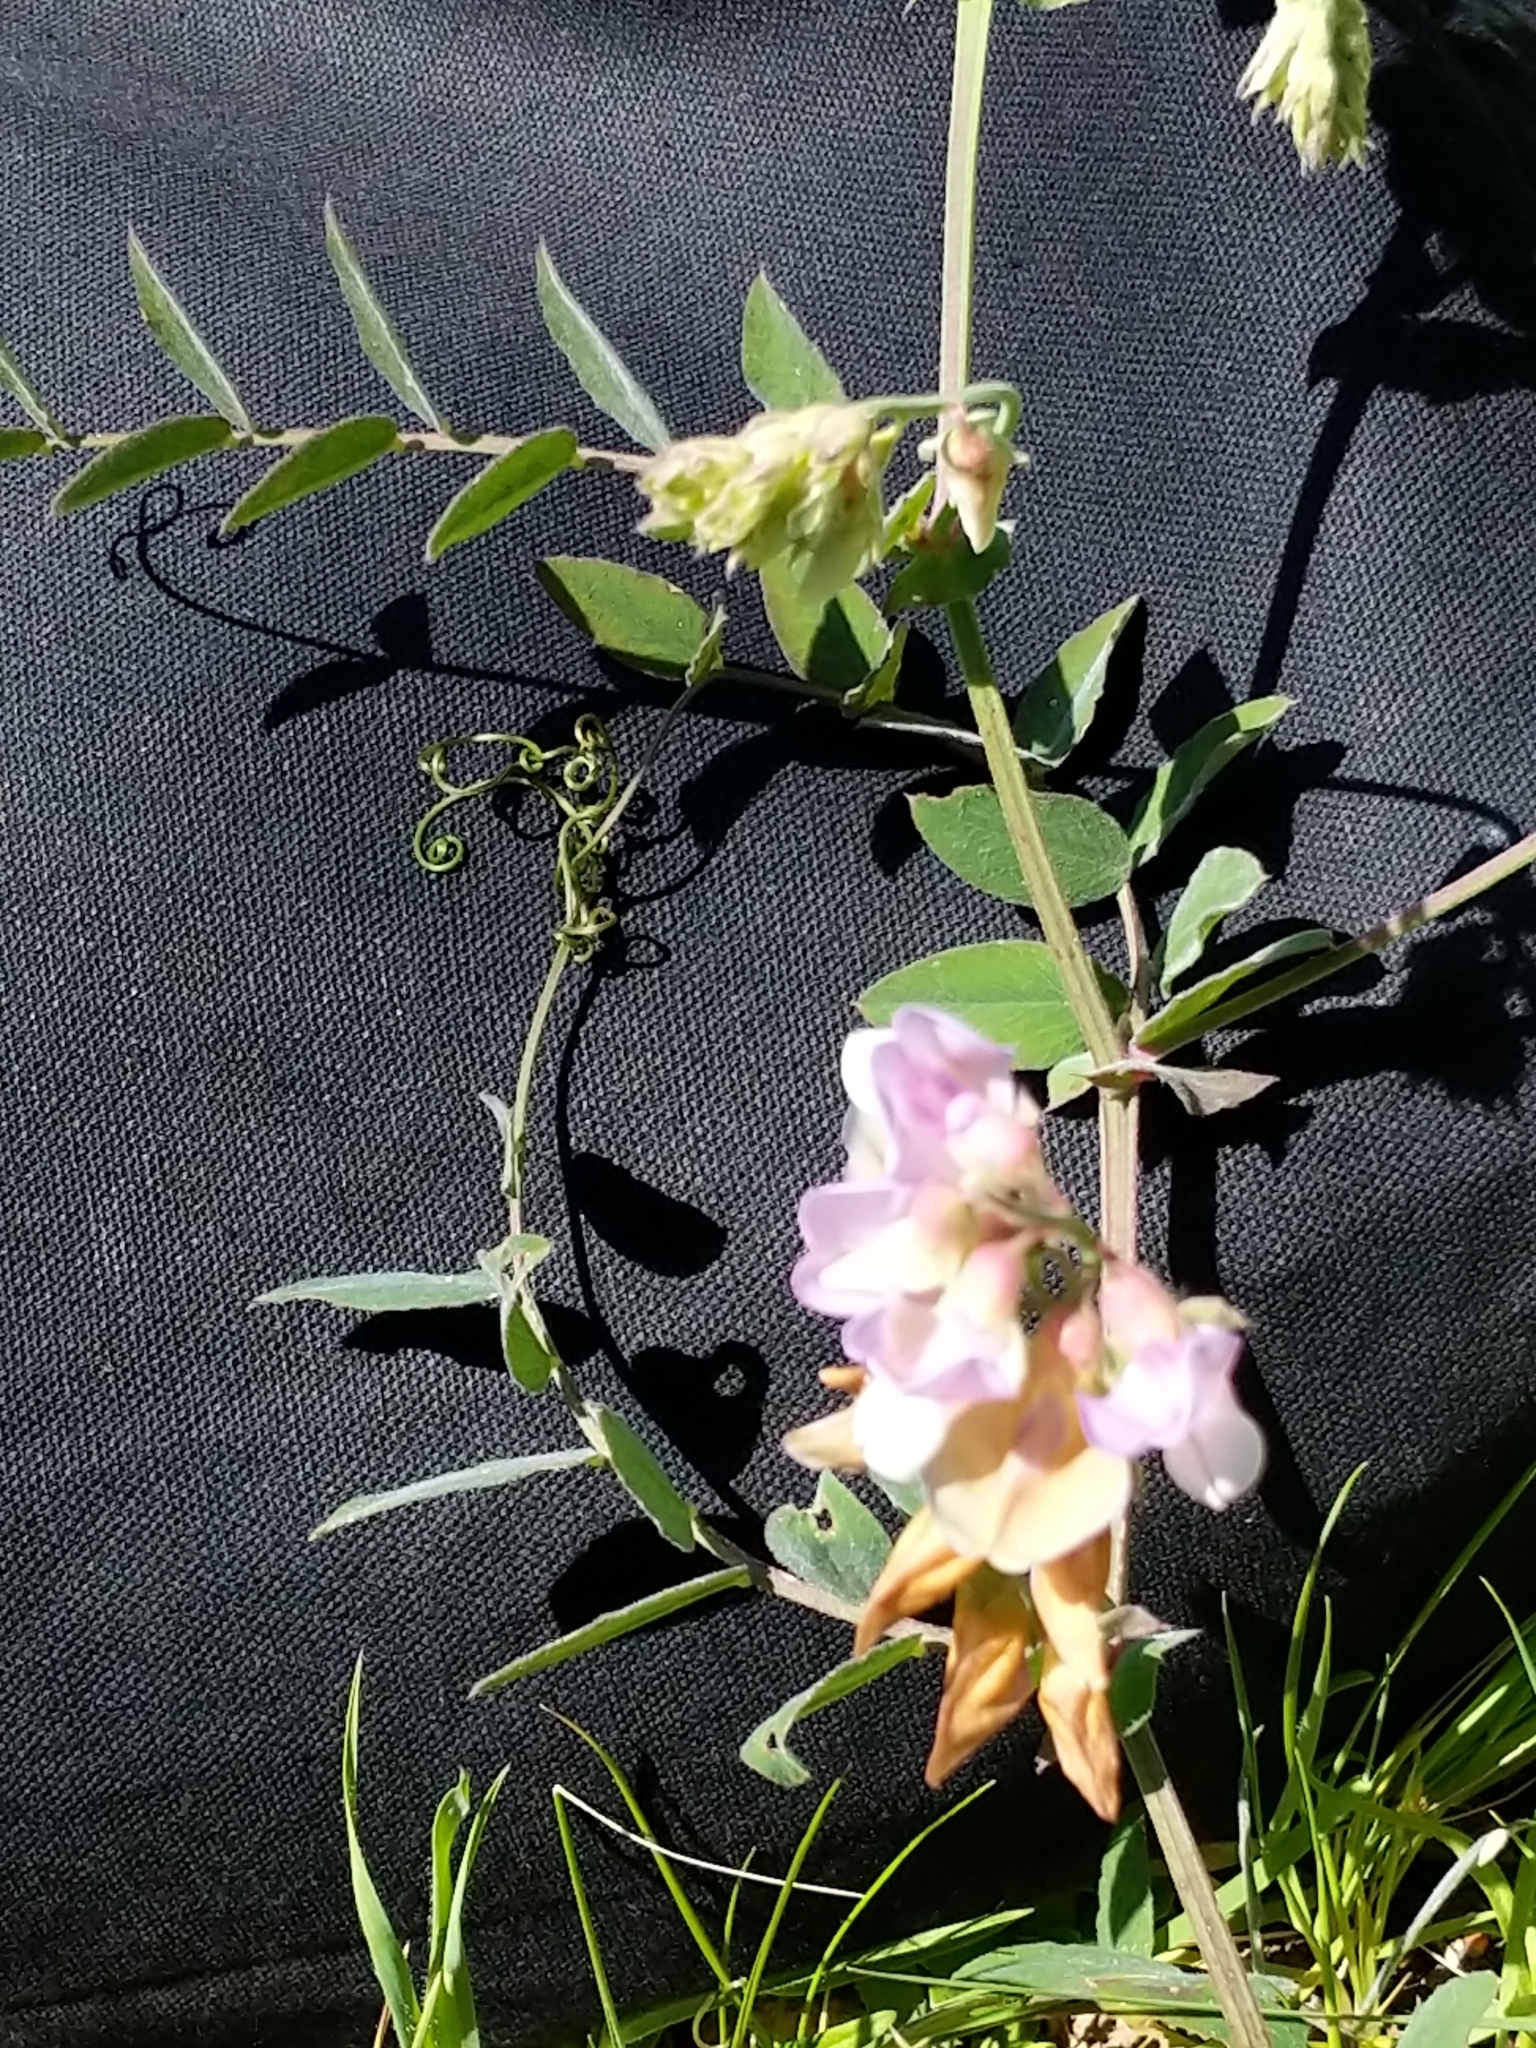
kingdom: Plantae
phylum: Tracheophyta
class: Magnoliopsida
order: Fabales
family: Fabaceae
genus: Lathyrus
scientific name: Lathyrus vestitus
